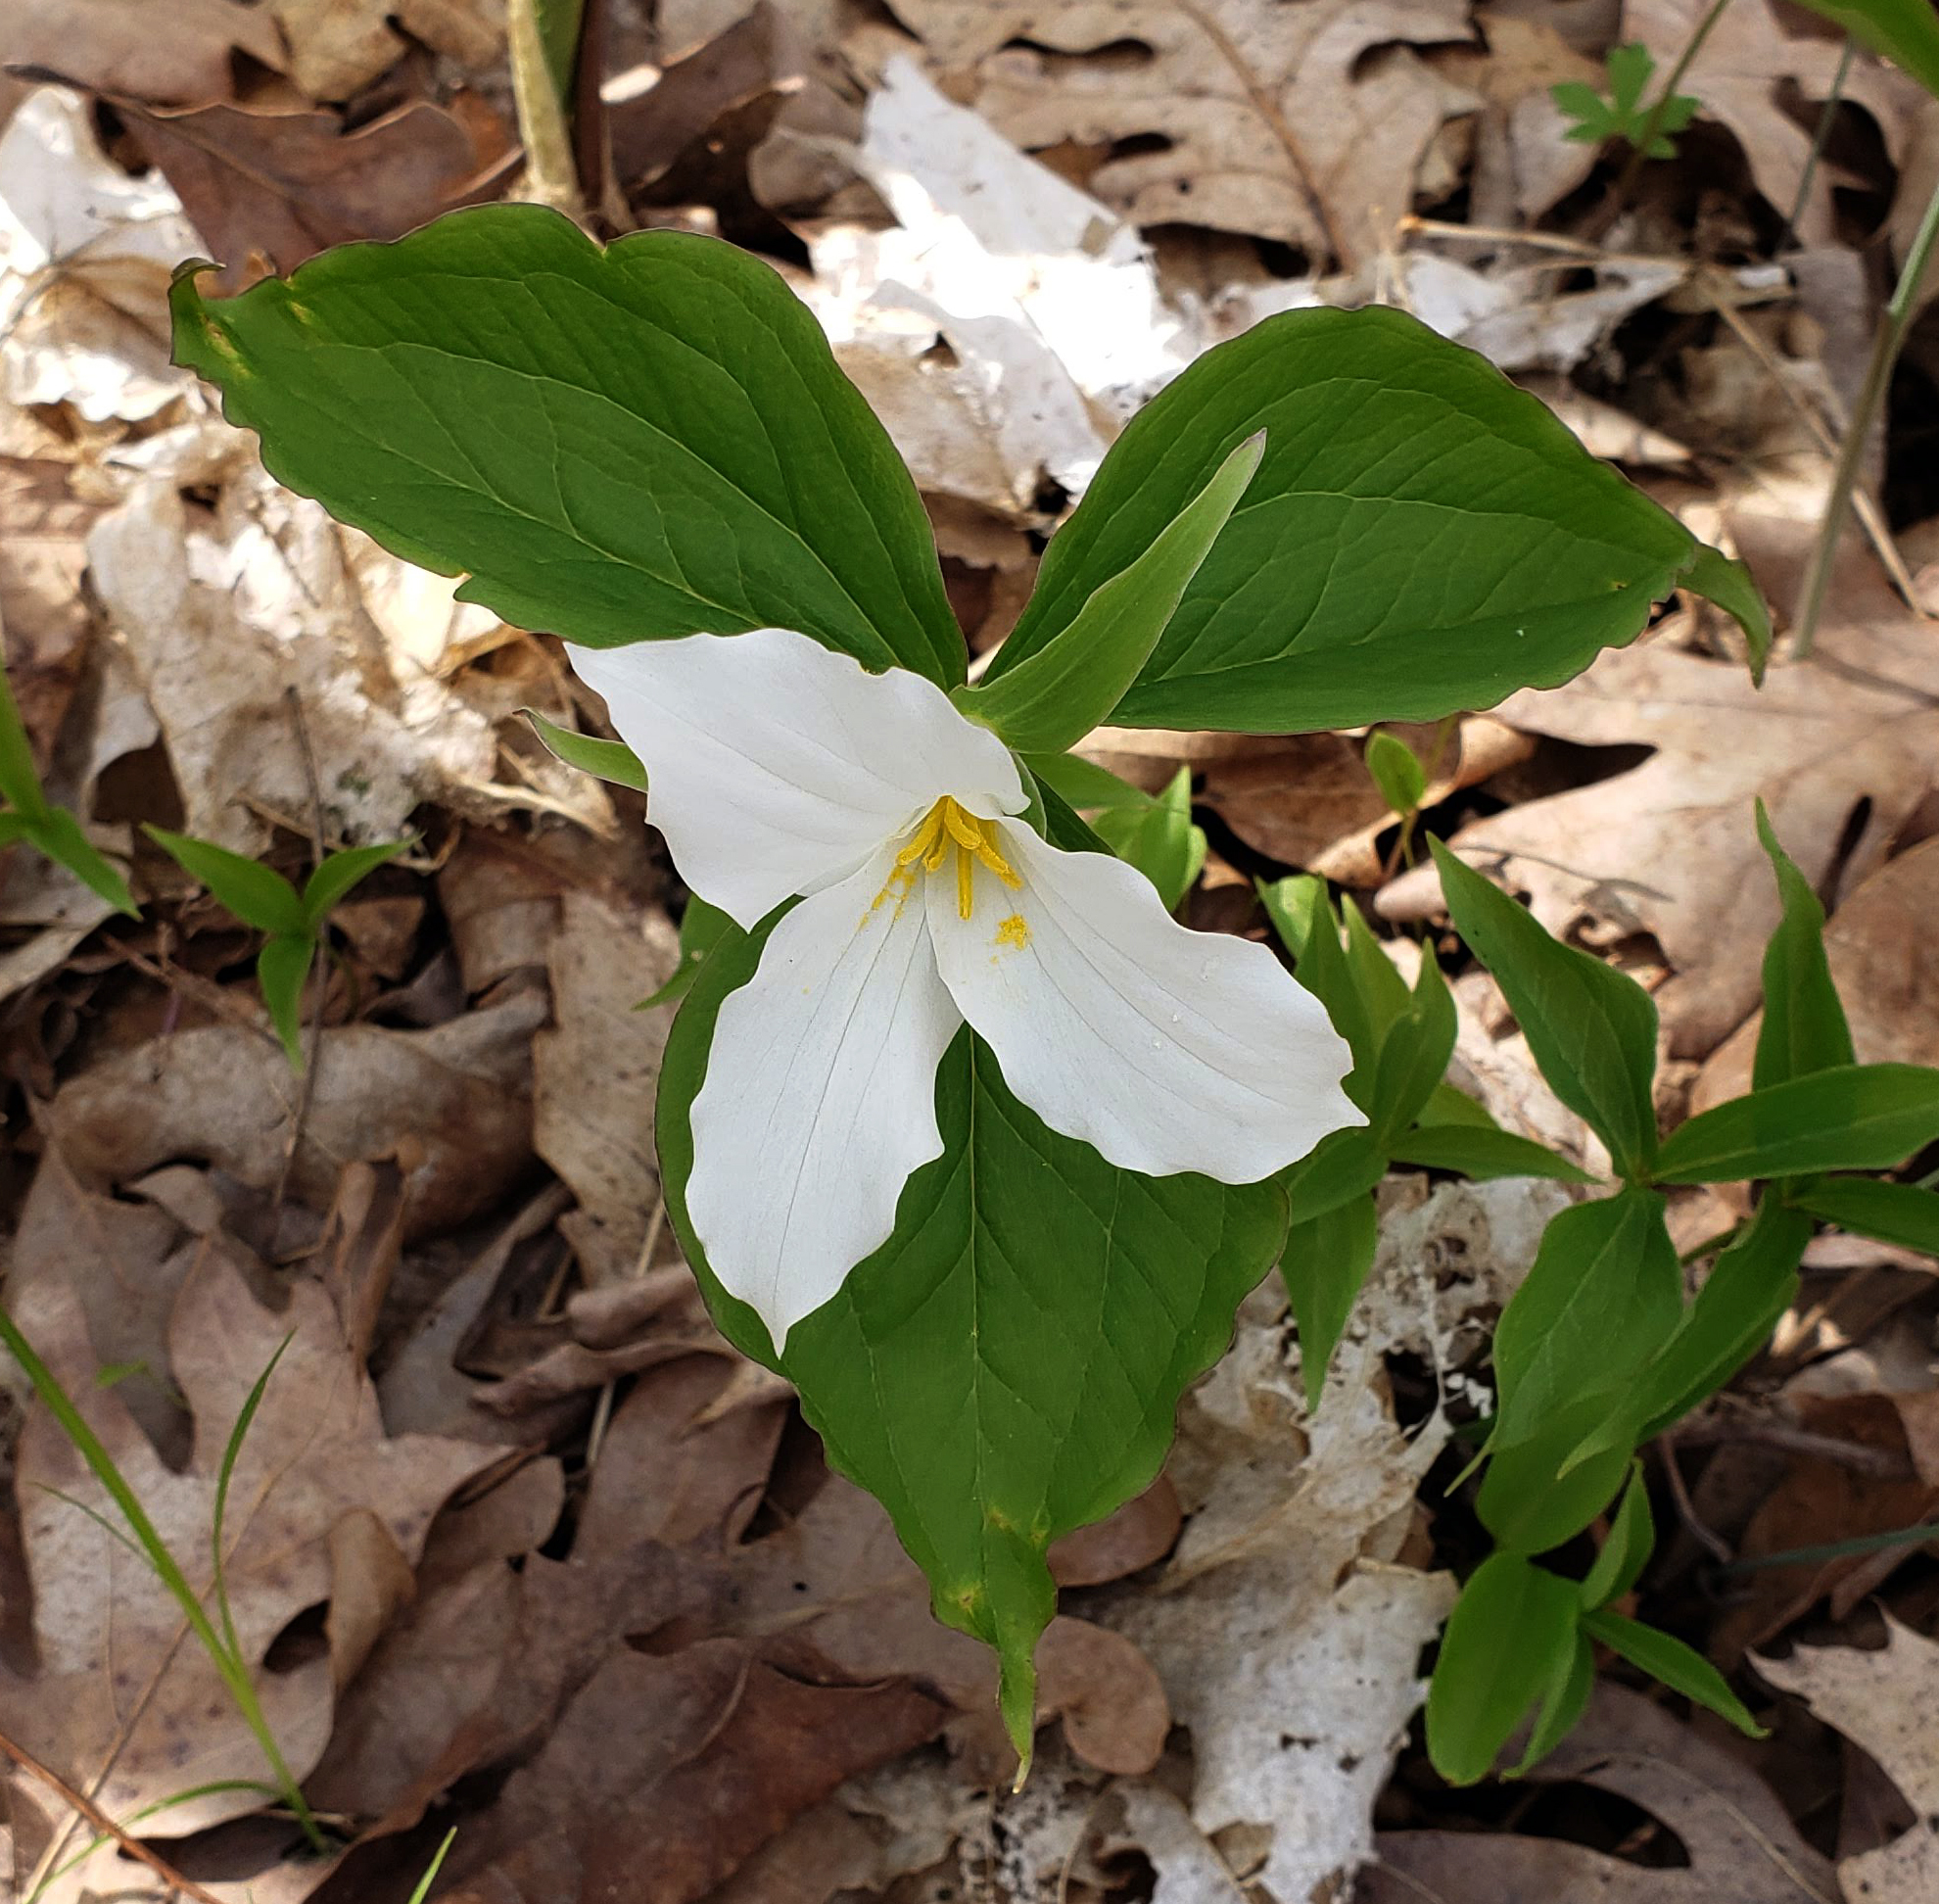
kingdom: Plantae
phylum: Tracheophyta
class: Liliopsida
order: Liliales
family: Melanthiaceae
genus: Trillium
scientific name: Trillium grandiflorum
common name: Great white trillium
